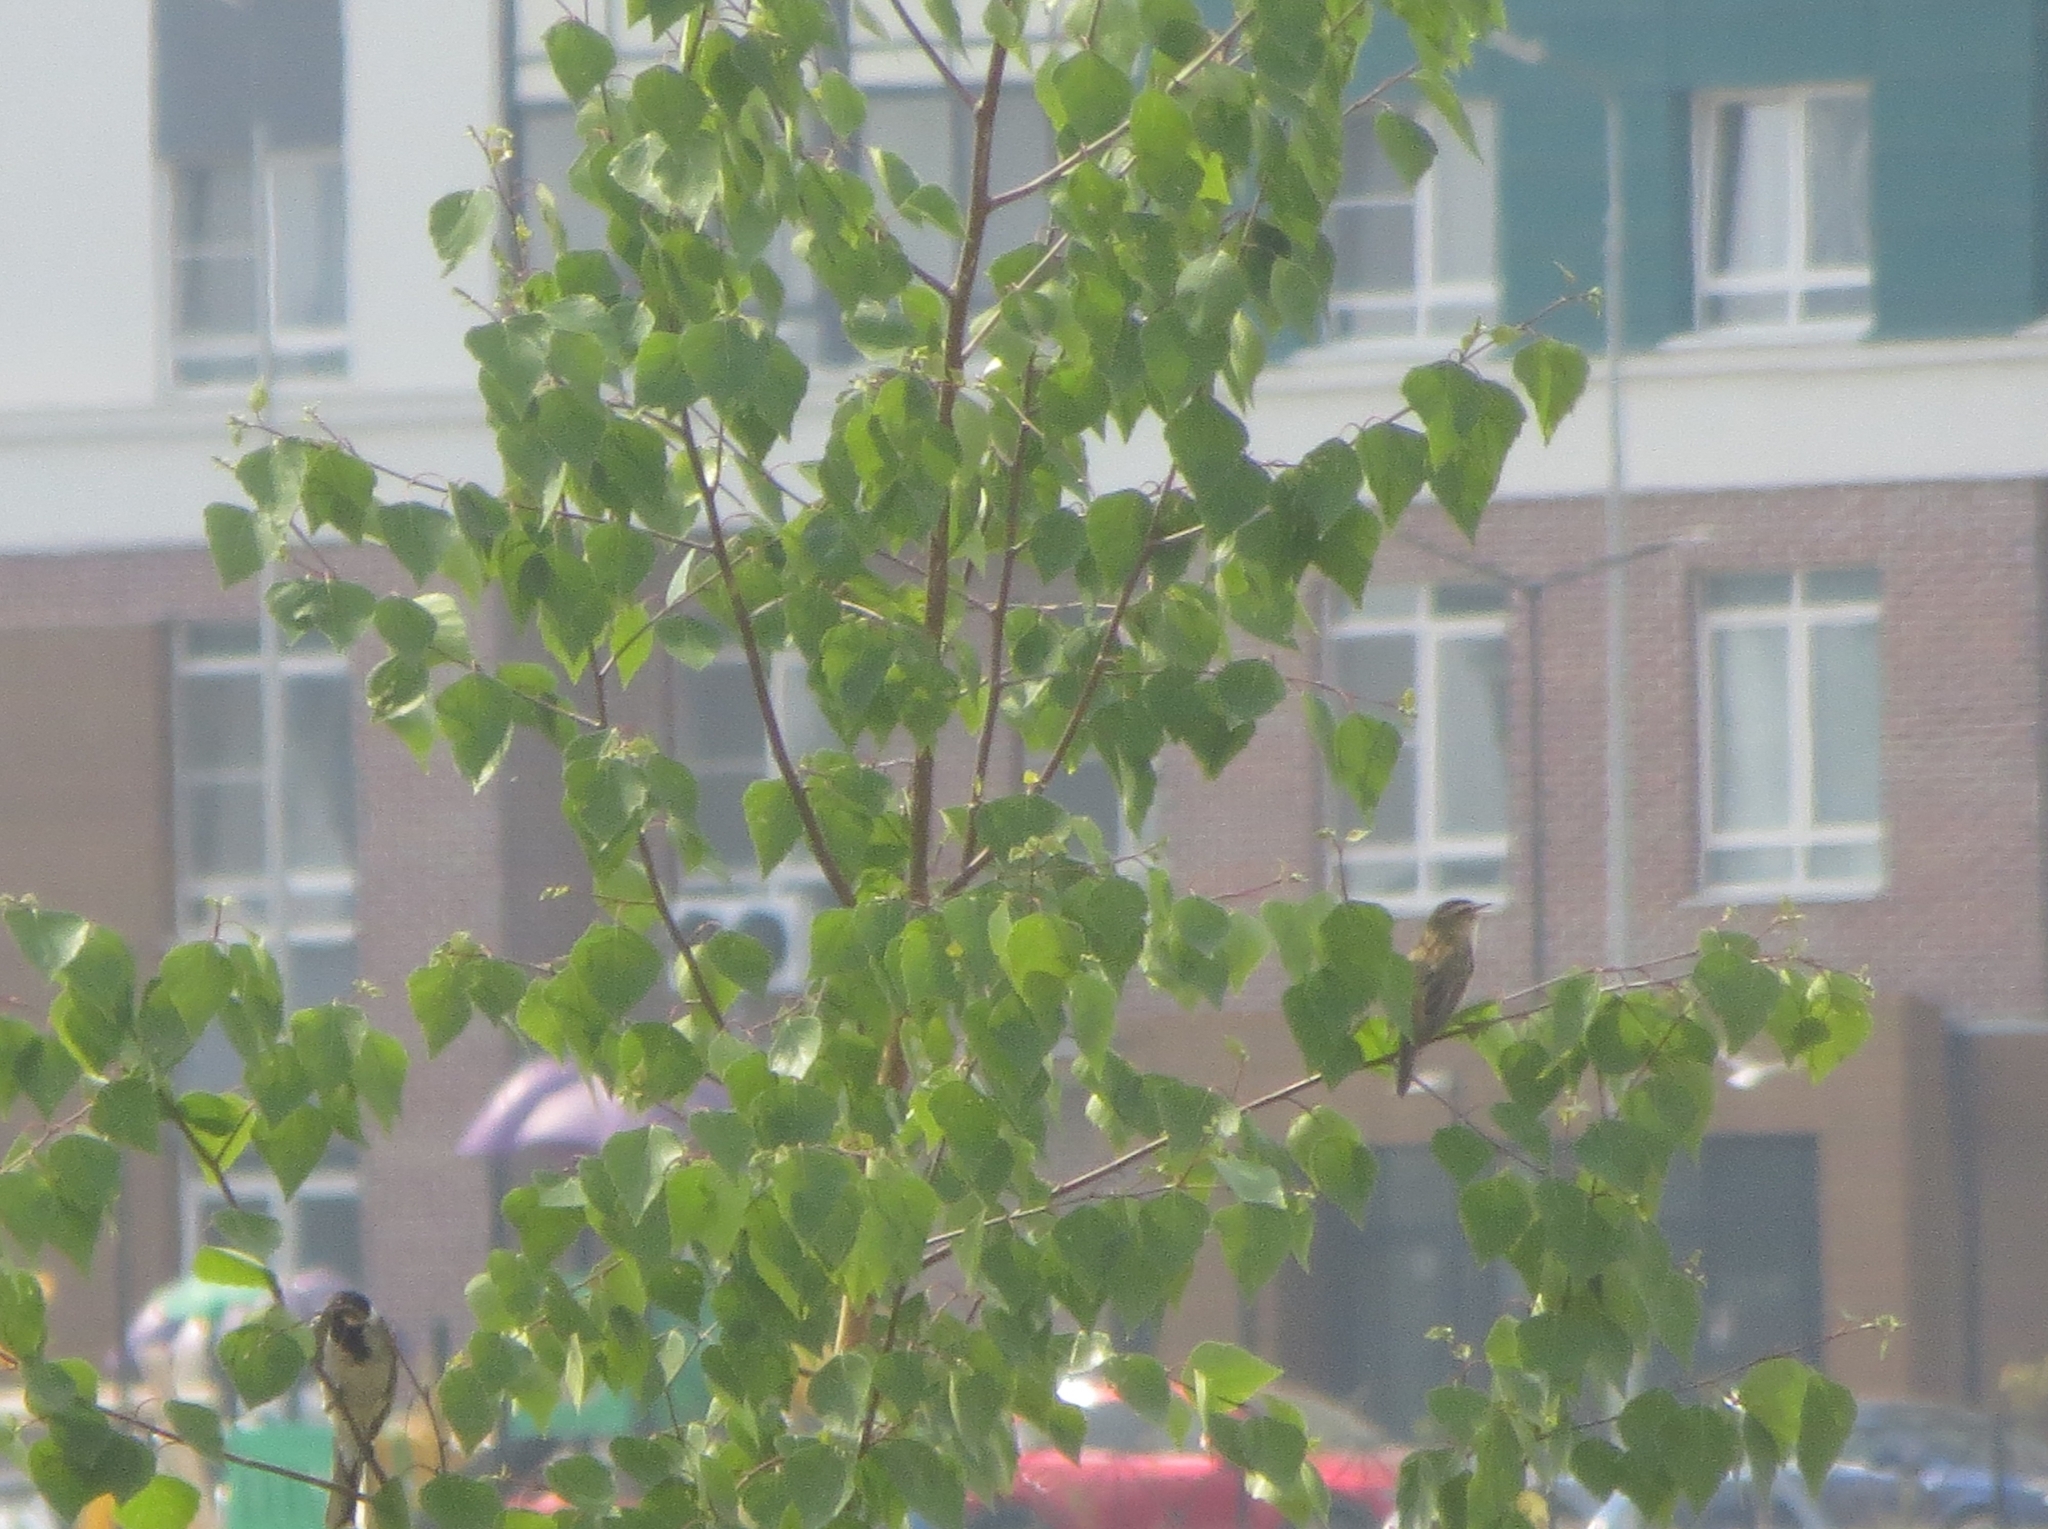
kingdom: Animalia
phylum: Chordata
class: Aves
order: Passeriformes
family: Emberizidae
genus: Emberiza
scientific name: Emberiza schoeniclus
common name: Reed bunting
